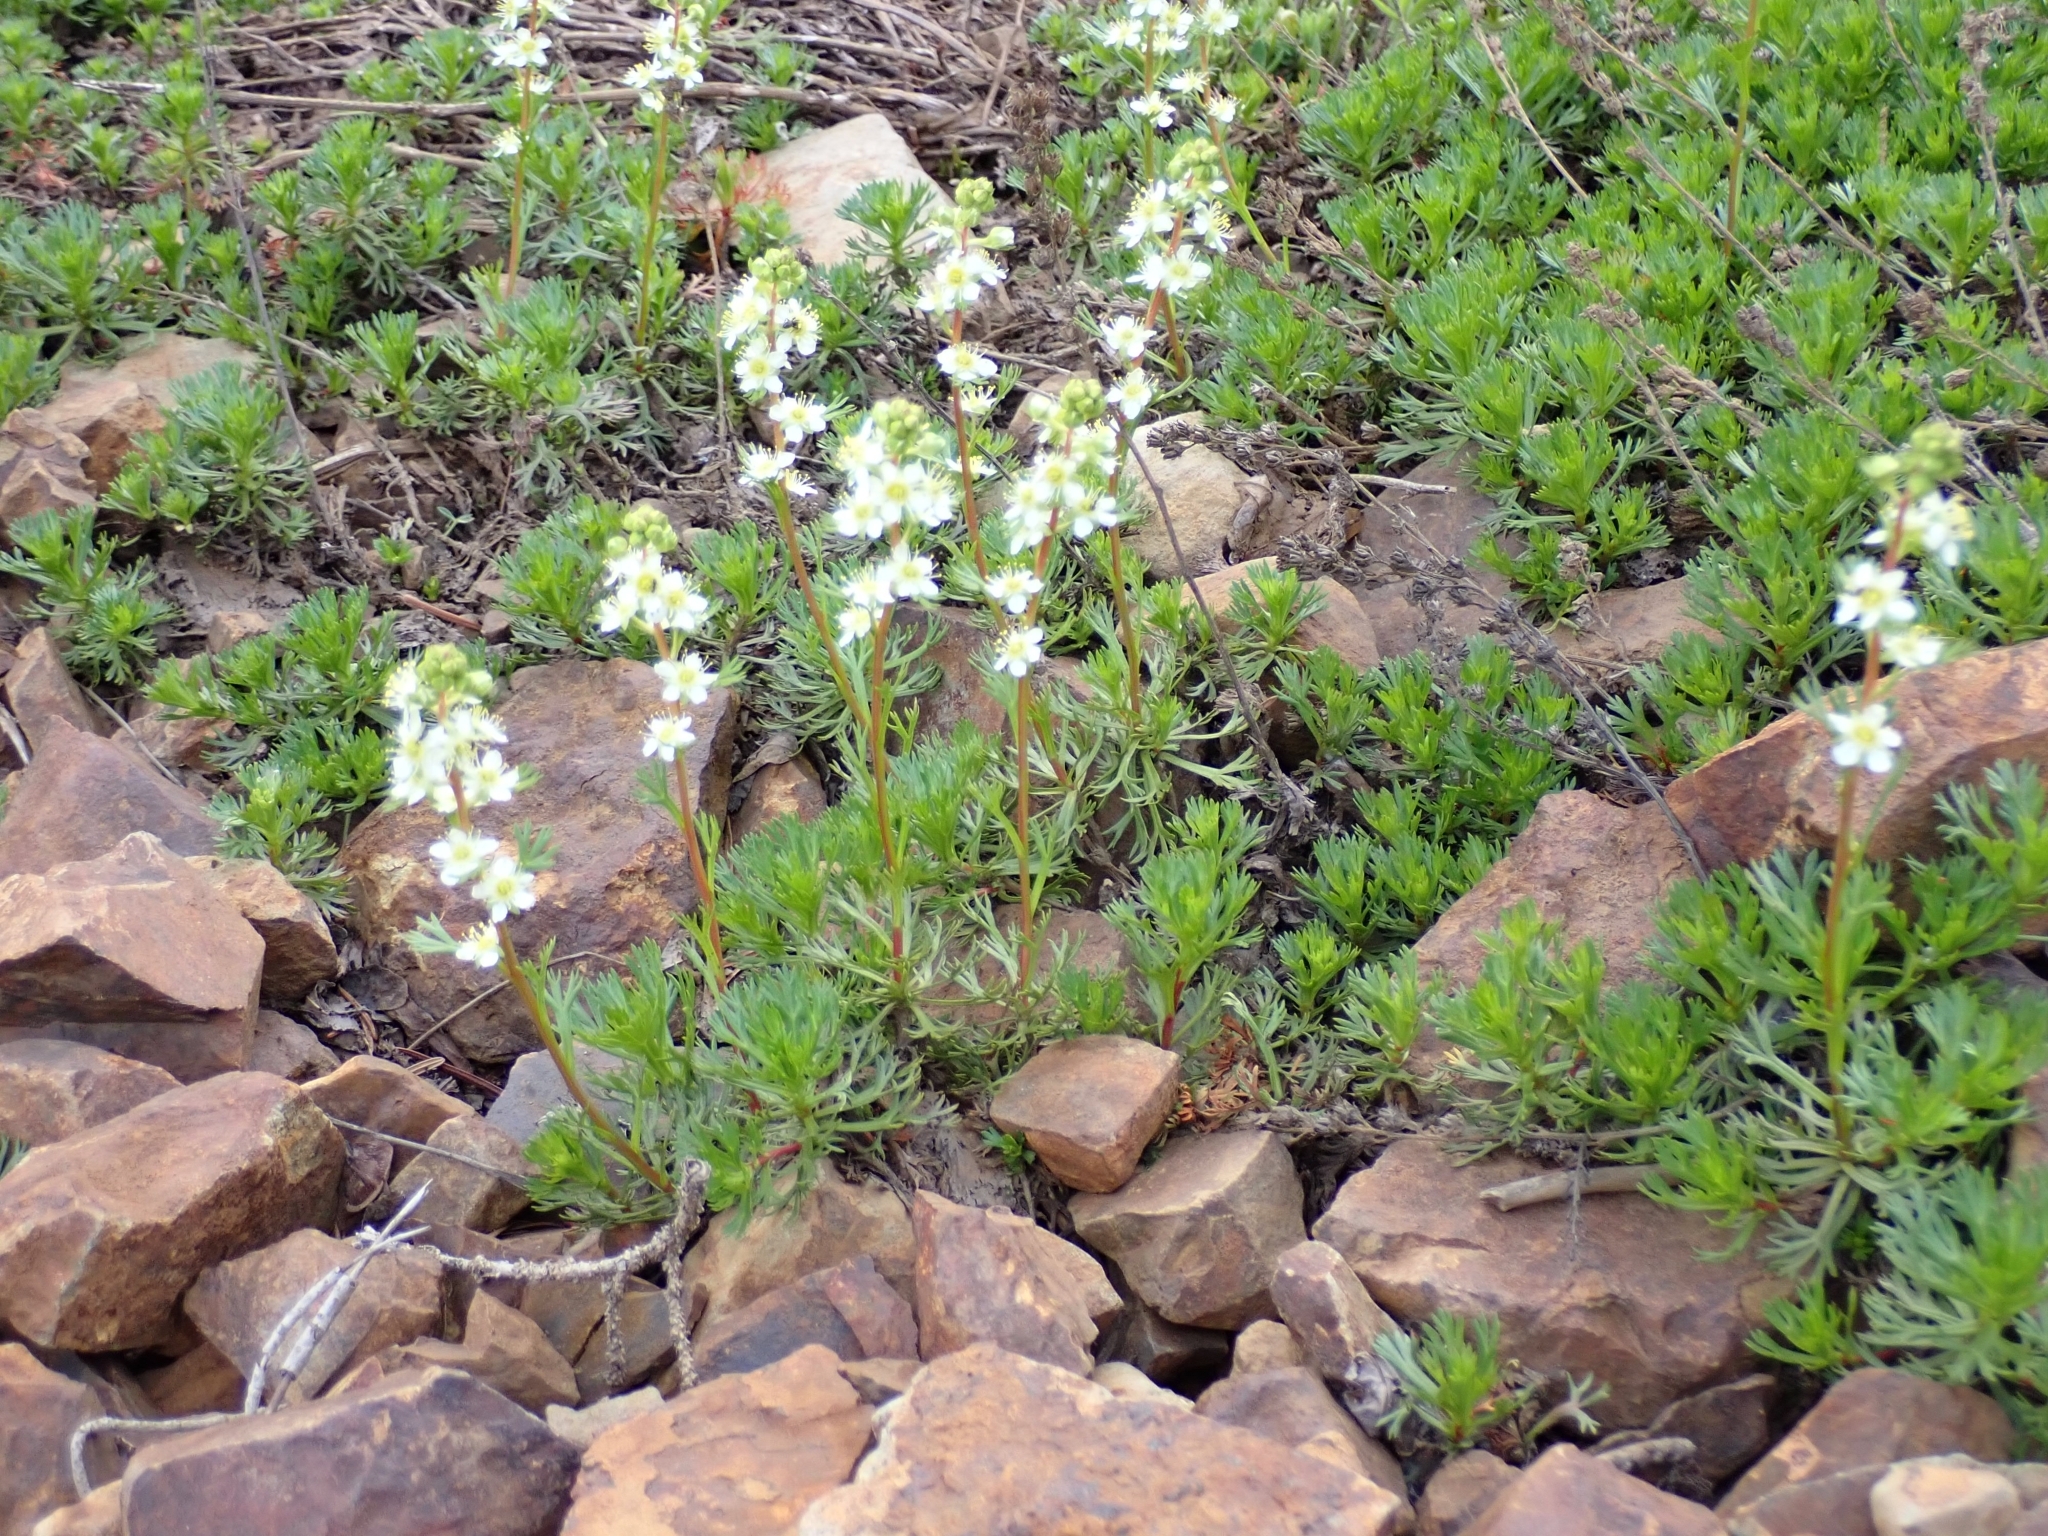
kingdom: Plantae
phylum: Tracheophyta
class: Magnoliopsida
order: Rosales
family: Rosaceae
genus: Luetkea
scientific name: Luetkea pectinata
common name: Partridgefoot
